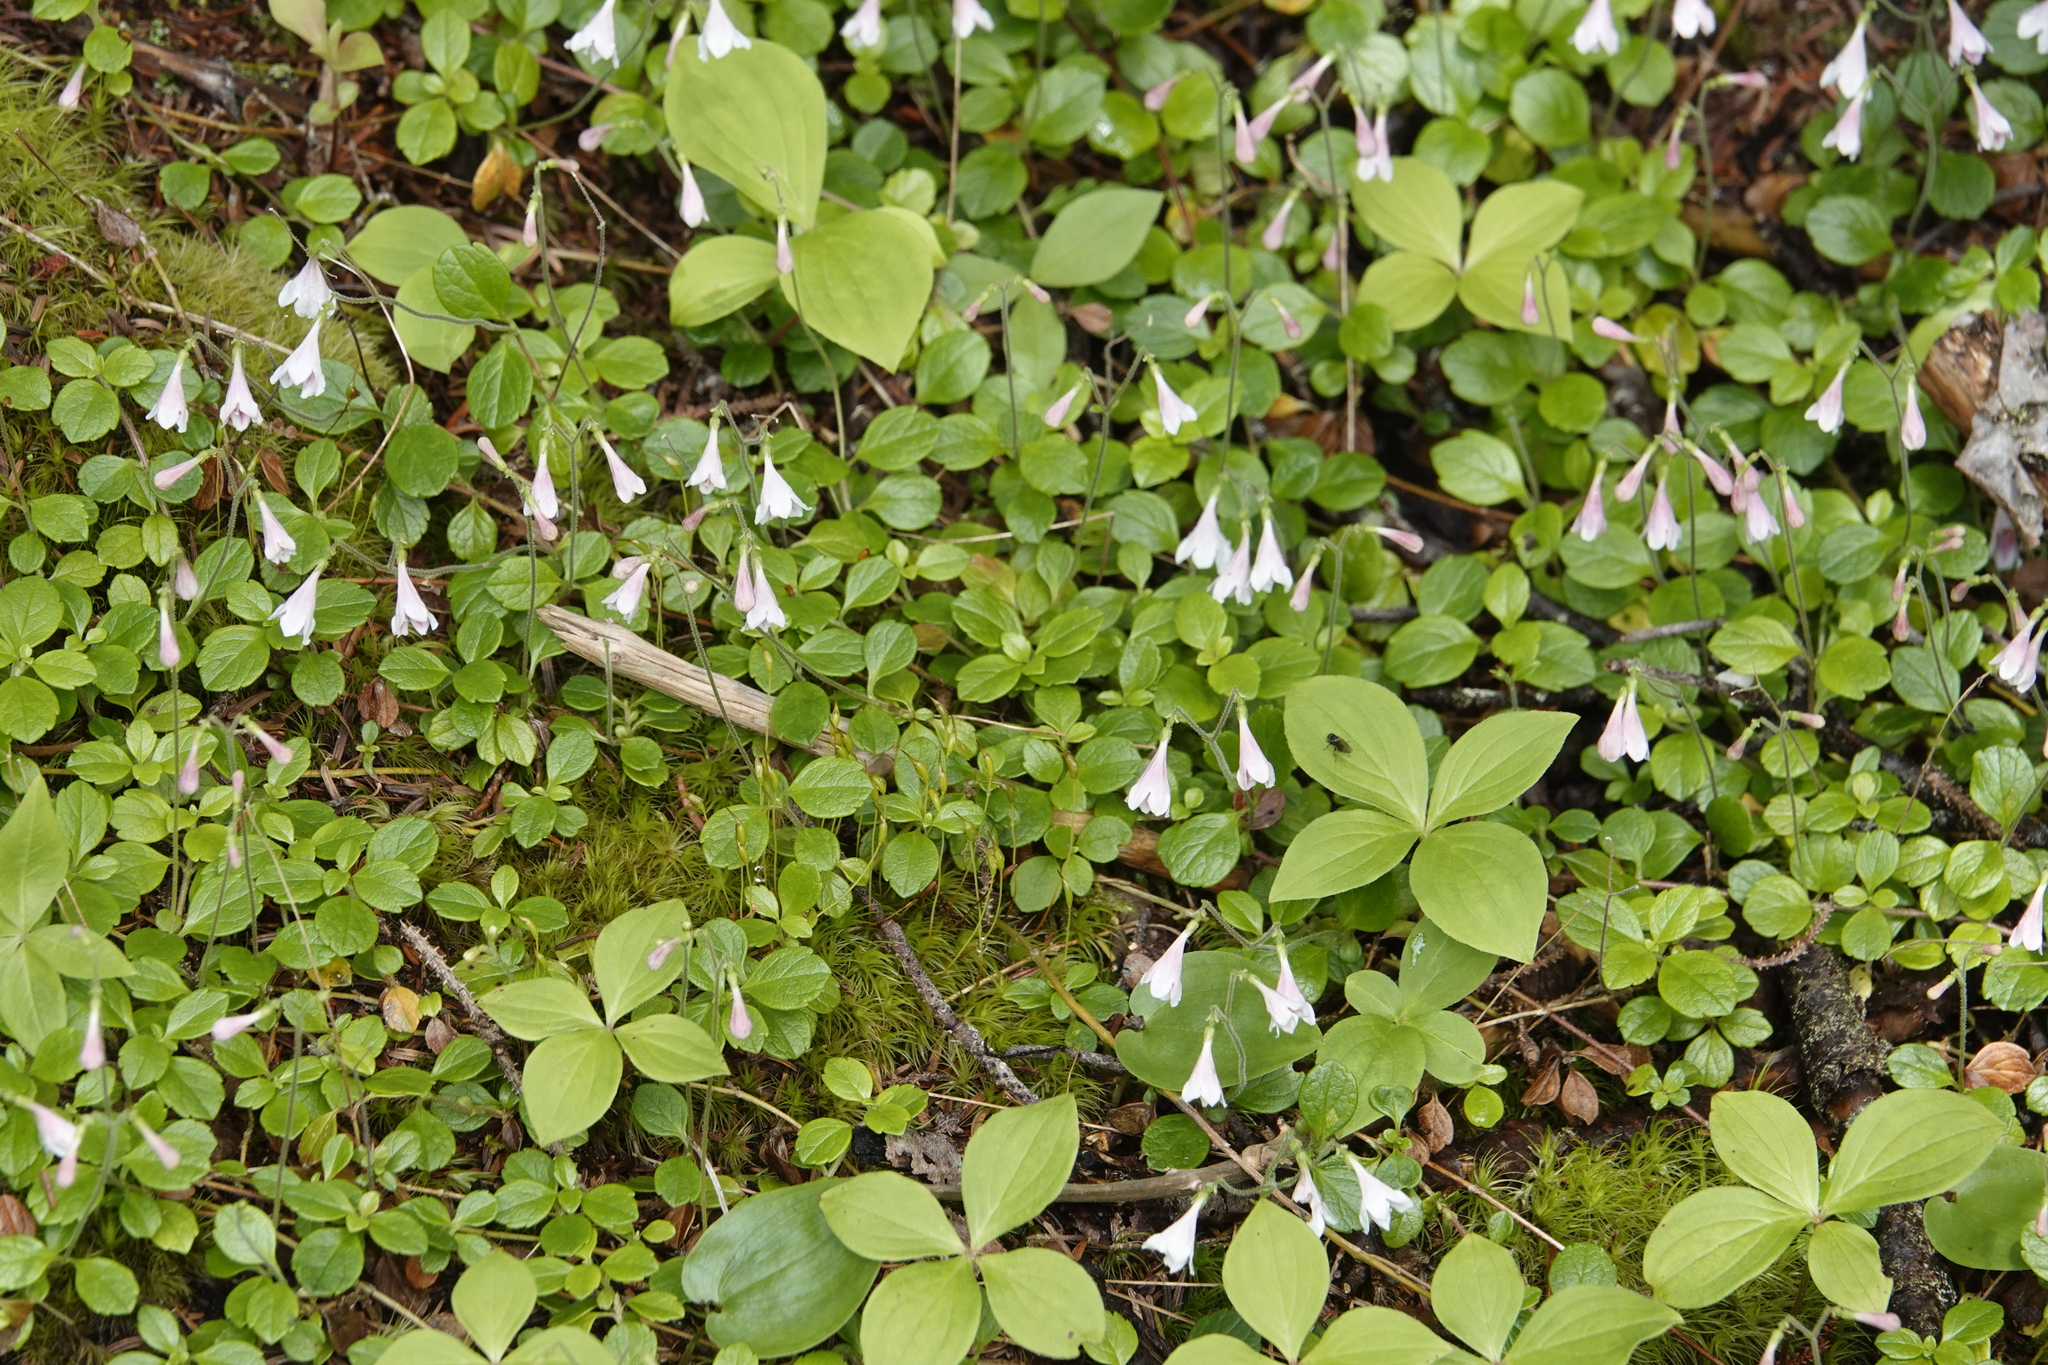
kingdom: Plantae
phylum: Tracheophyta
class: Magnoliopsida
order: Dipsacales
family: Caprifoliaceae
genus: Linnaea
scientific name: Linnaea borealis
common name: Twinflower
